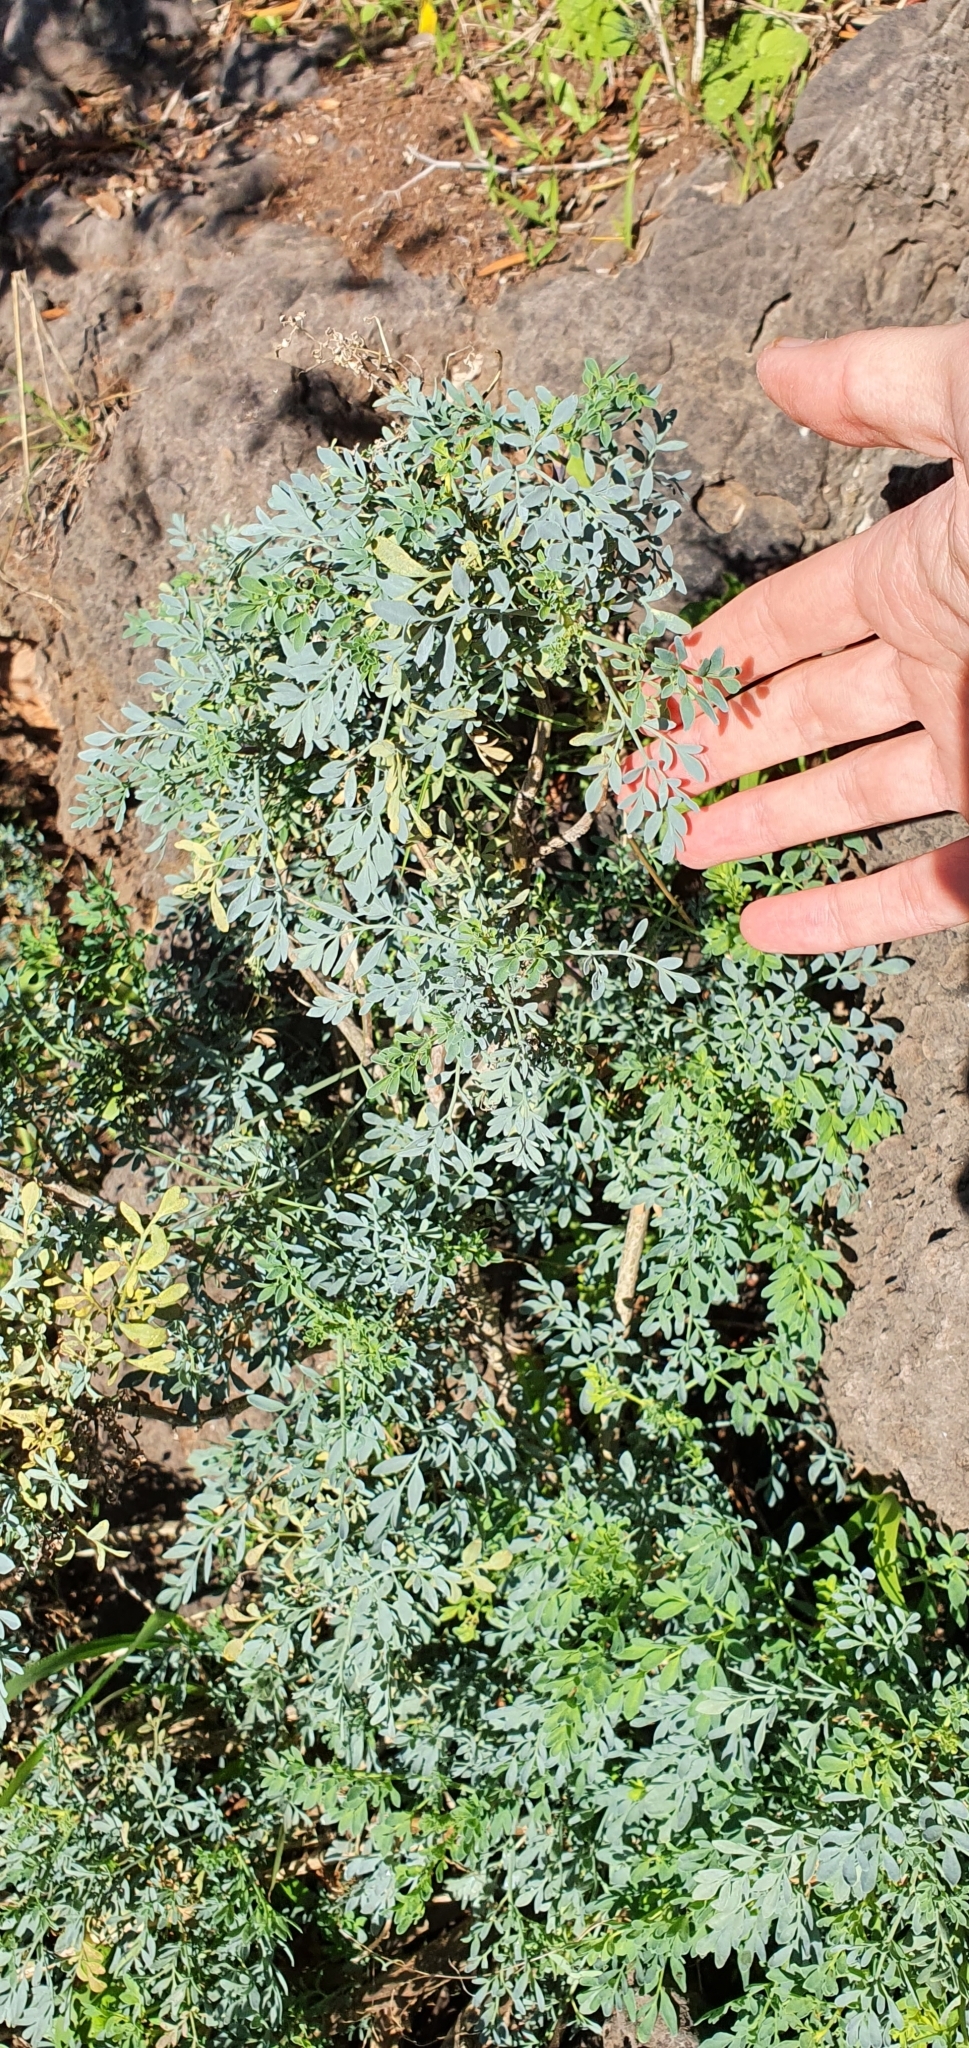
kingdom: Plantae
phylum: Tracheophyta
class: Magnoliopsida
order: Sapindales
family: Rutaceae
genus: Ruta
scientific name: Ruta chalepensis
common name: Fringed rue
